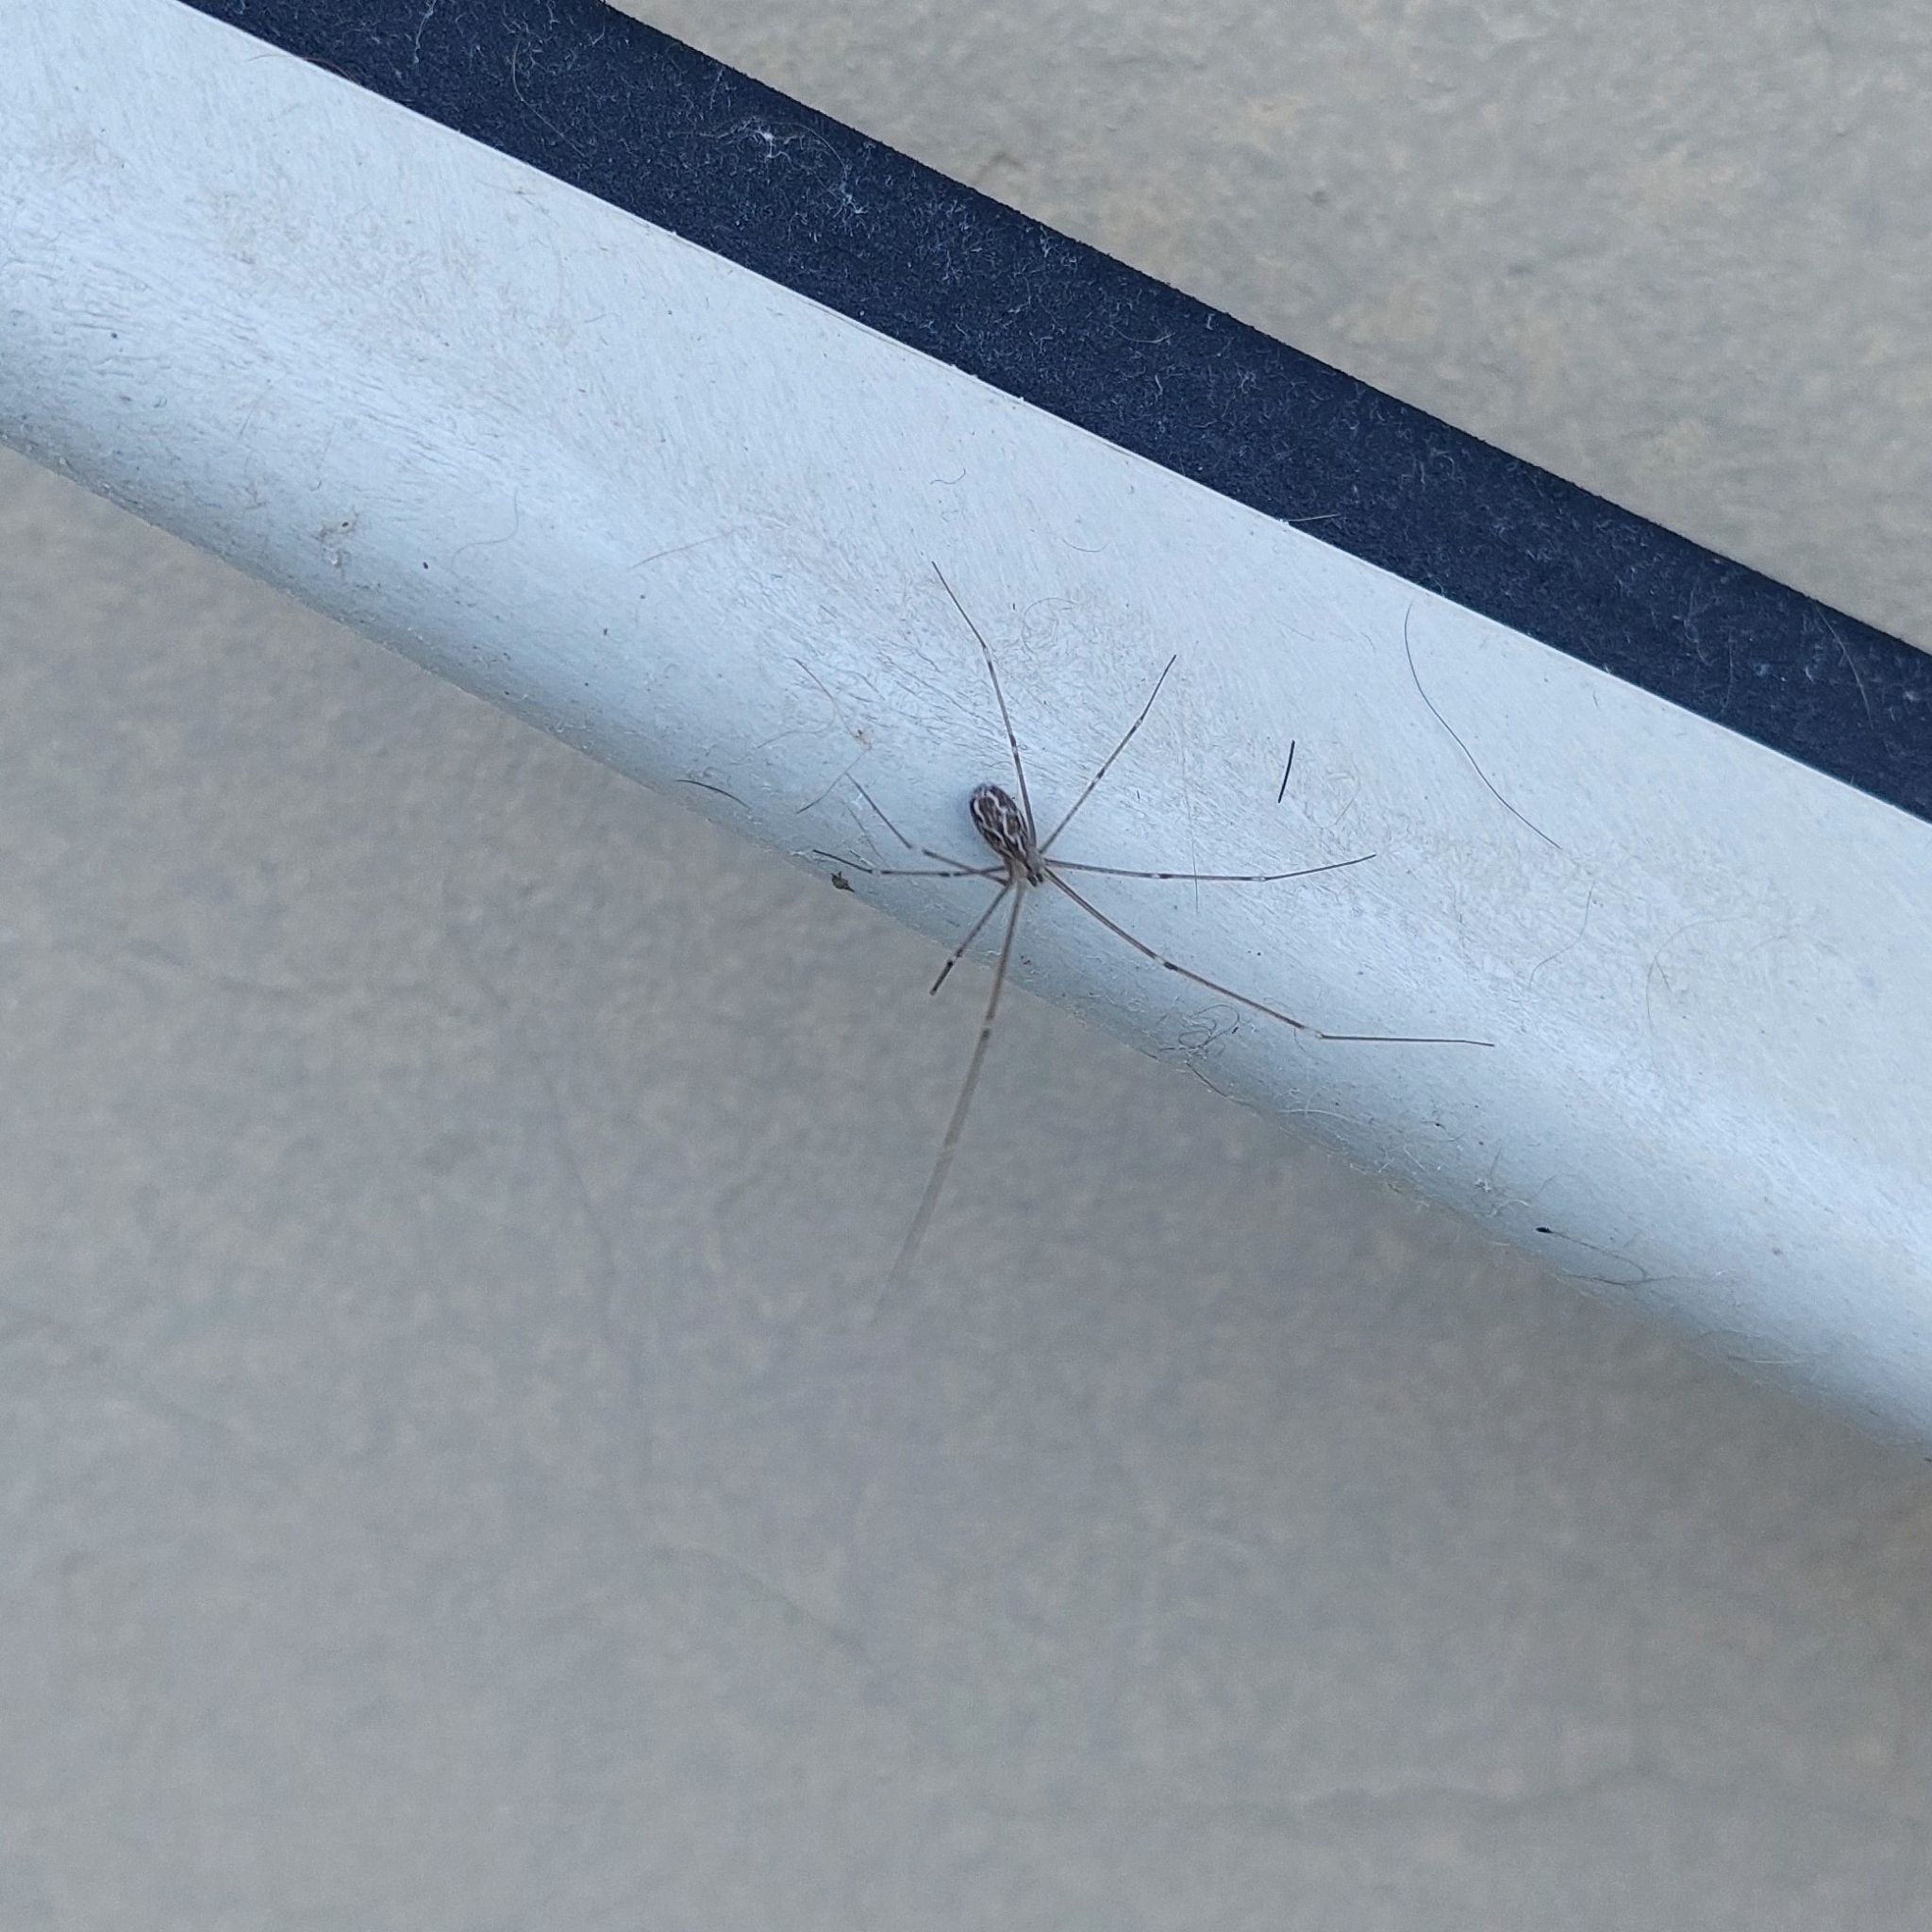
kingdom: Animalia
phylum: Arthropoda
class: Arachnida
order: Araneae
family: Pholcidae
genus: Holocnemus
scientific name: Holocnemus pluchei
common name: Marbled cellar spider
